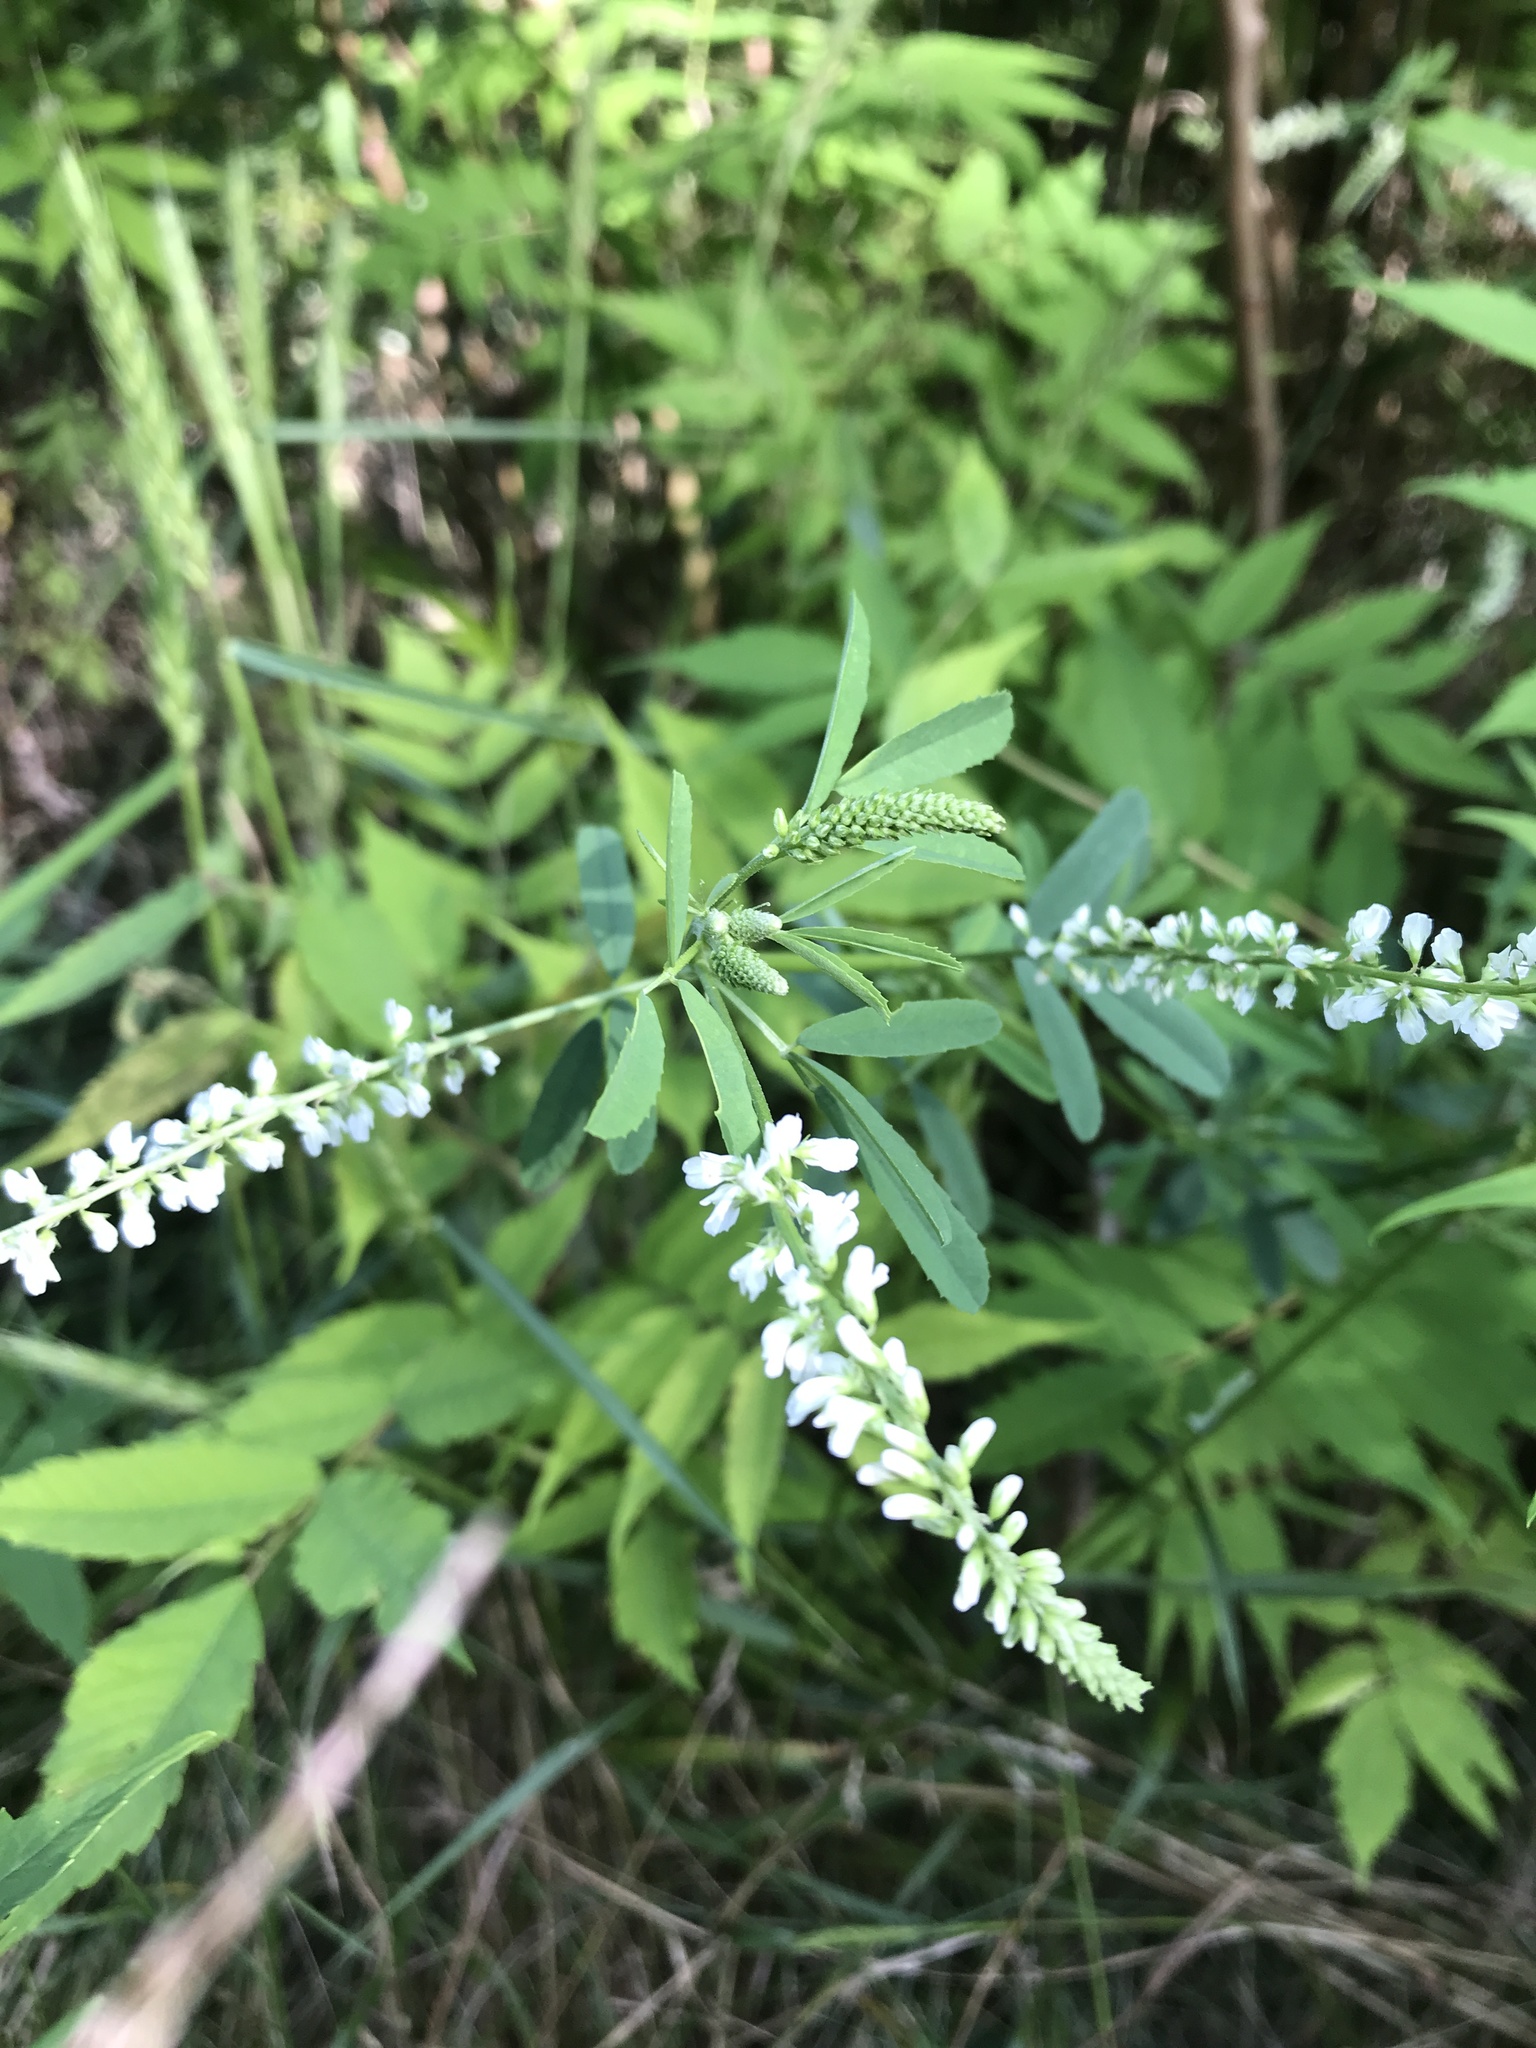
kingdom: Plantae
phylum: Tracheophyta
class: Magnoliopsida
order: Fabales
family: Fabaceae
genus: Melilotus
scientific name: Melilotus albus
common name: White melilot
